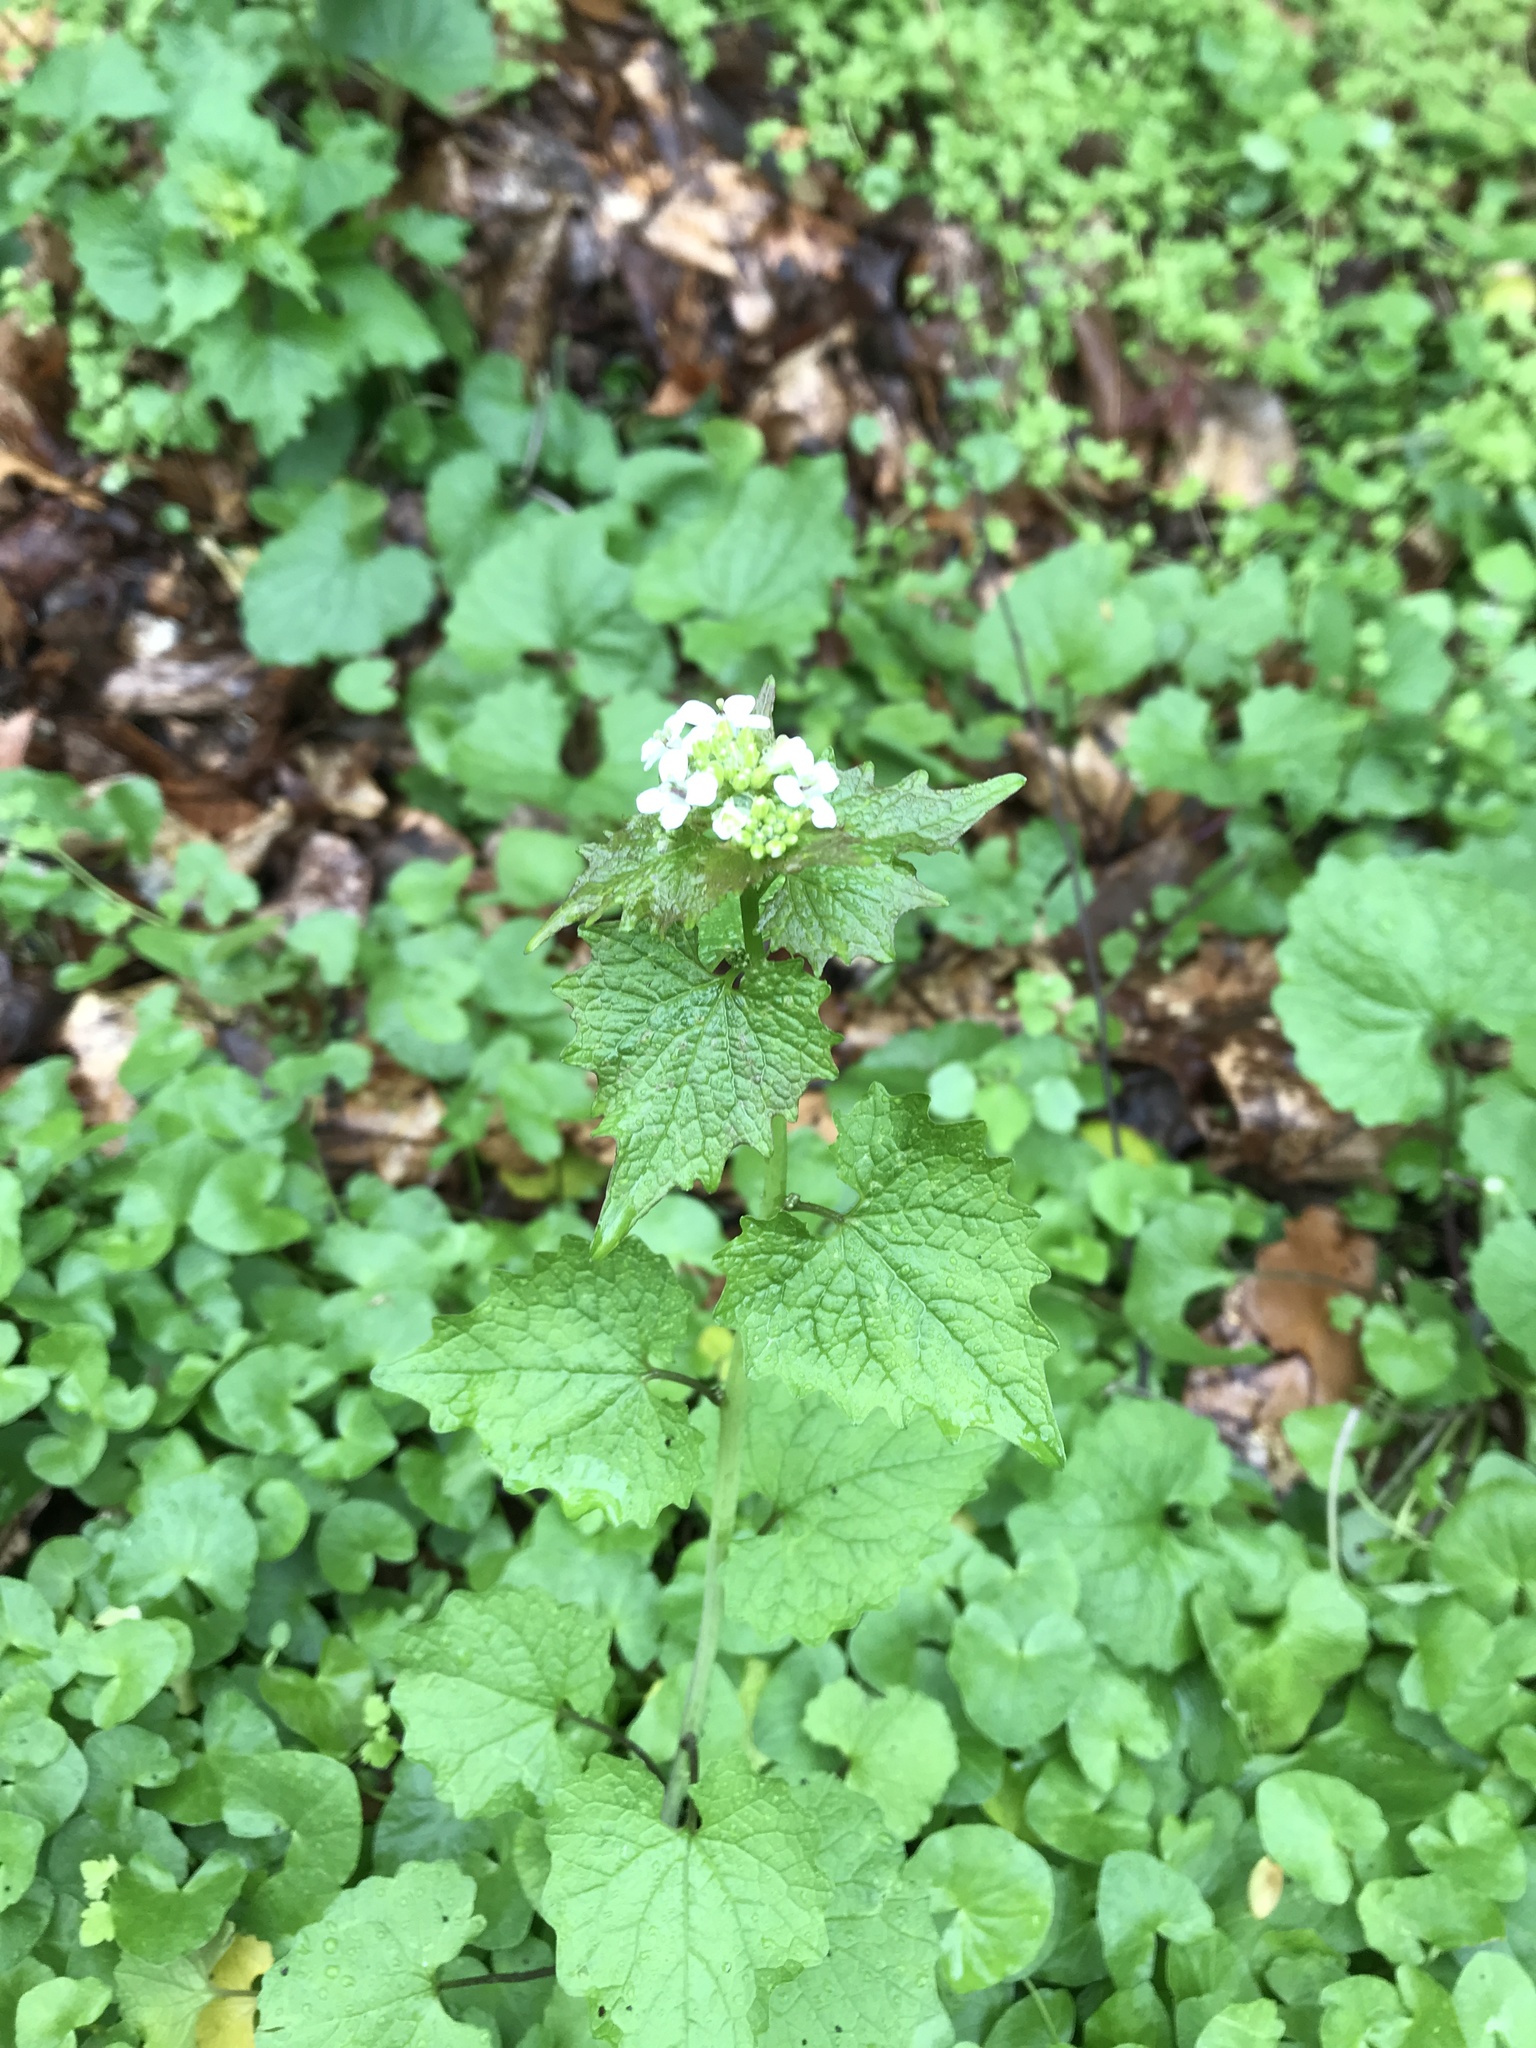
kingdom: Plantae
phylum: Tracheophyta
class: Magnoliopsida
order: Brassicales
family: Brassicaceae
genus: Alliaria
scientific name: Alliaria petiolata
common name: Garlic mustard
